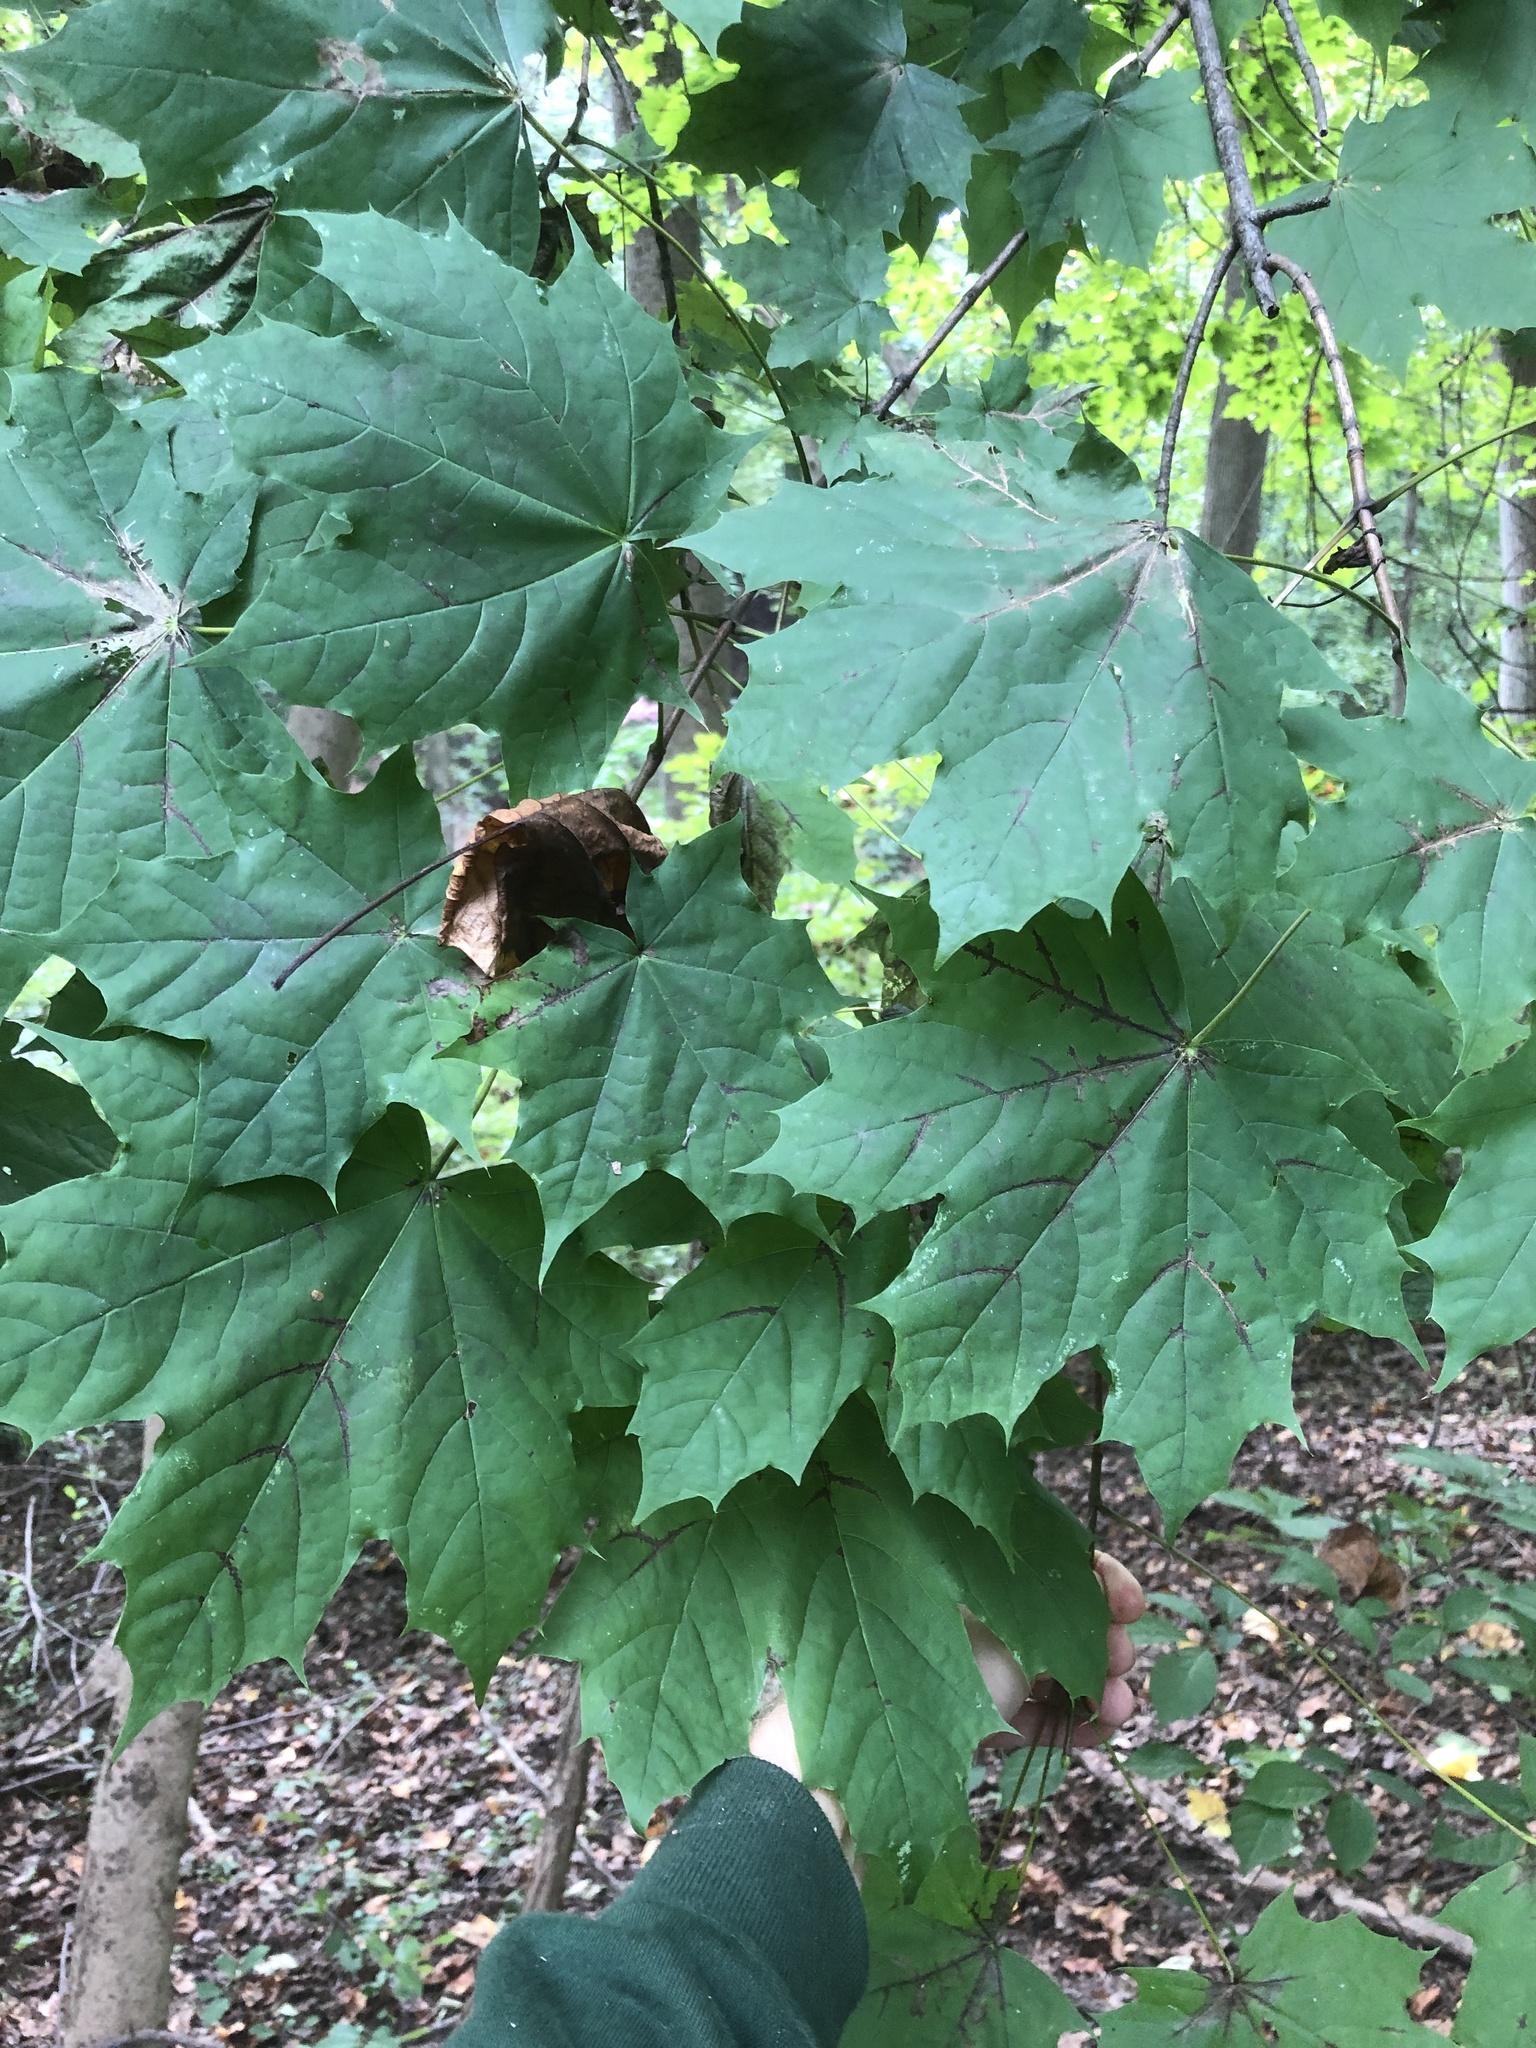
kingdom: Plantae
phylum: Tracheophyta
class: Magnoliopsida
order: Sapindales
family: Sapindaceae
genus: Acer
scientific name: Acer platanoides
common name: Norway maple
